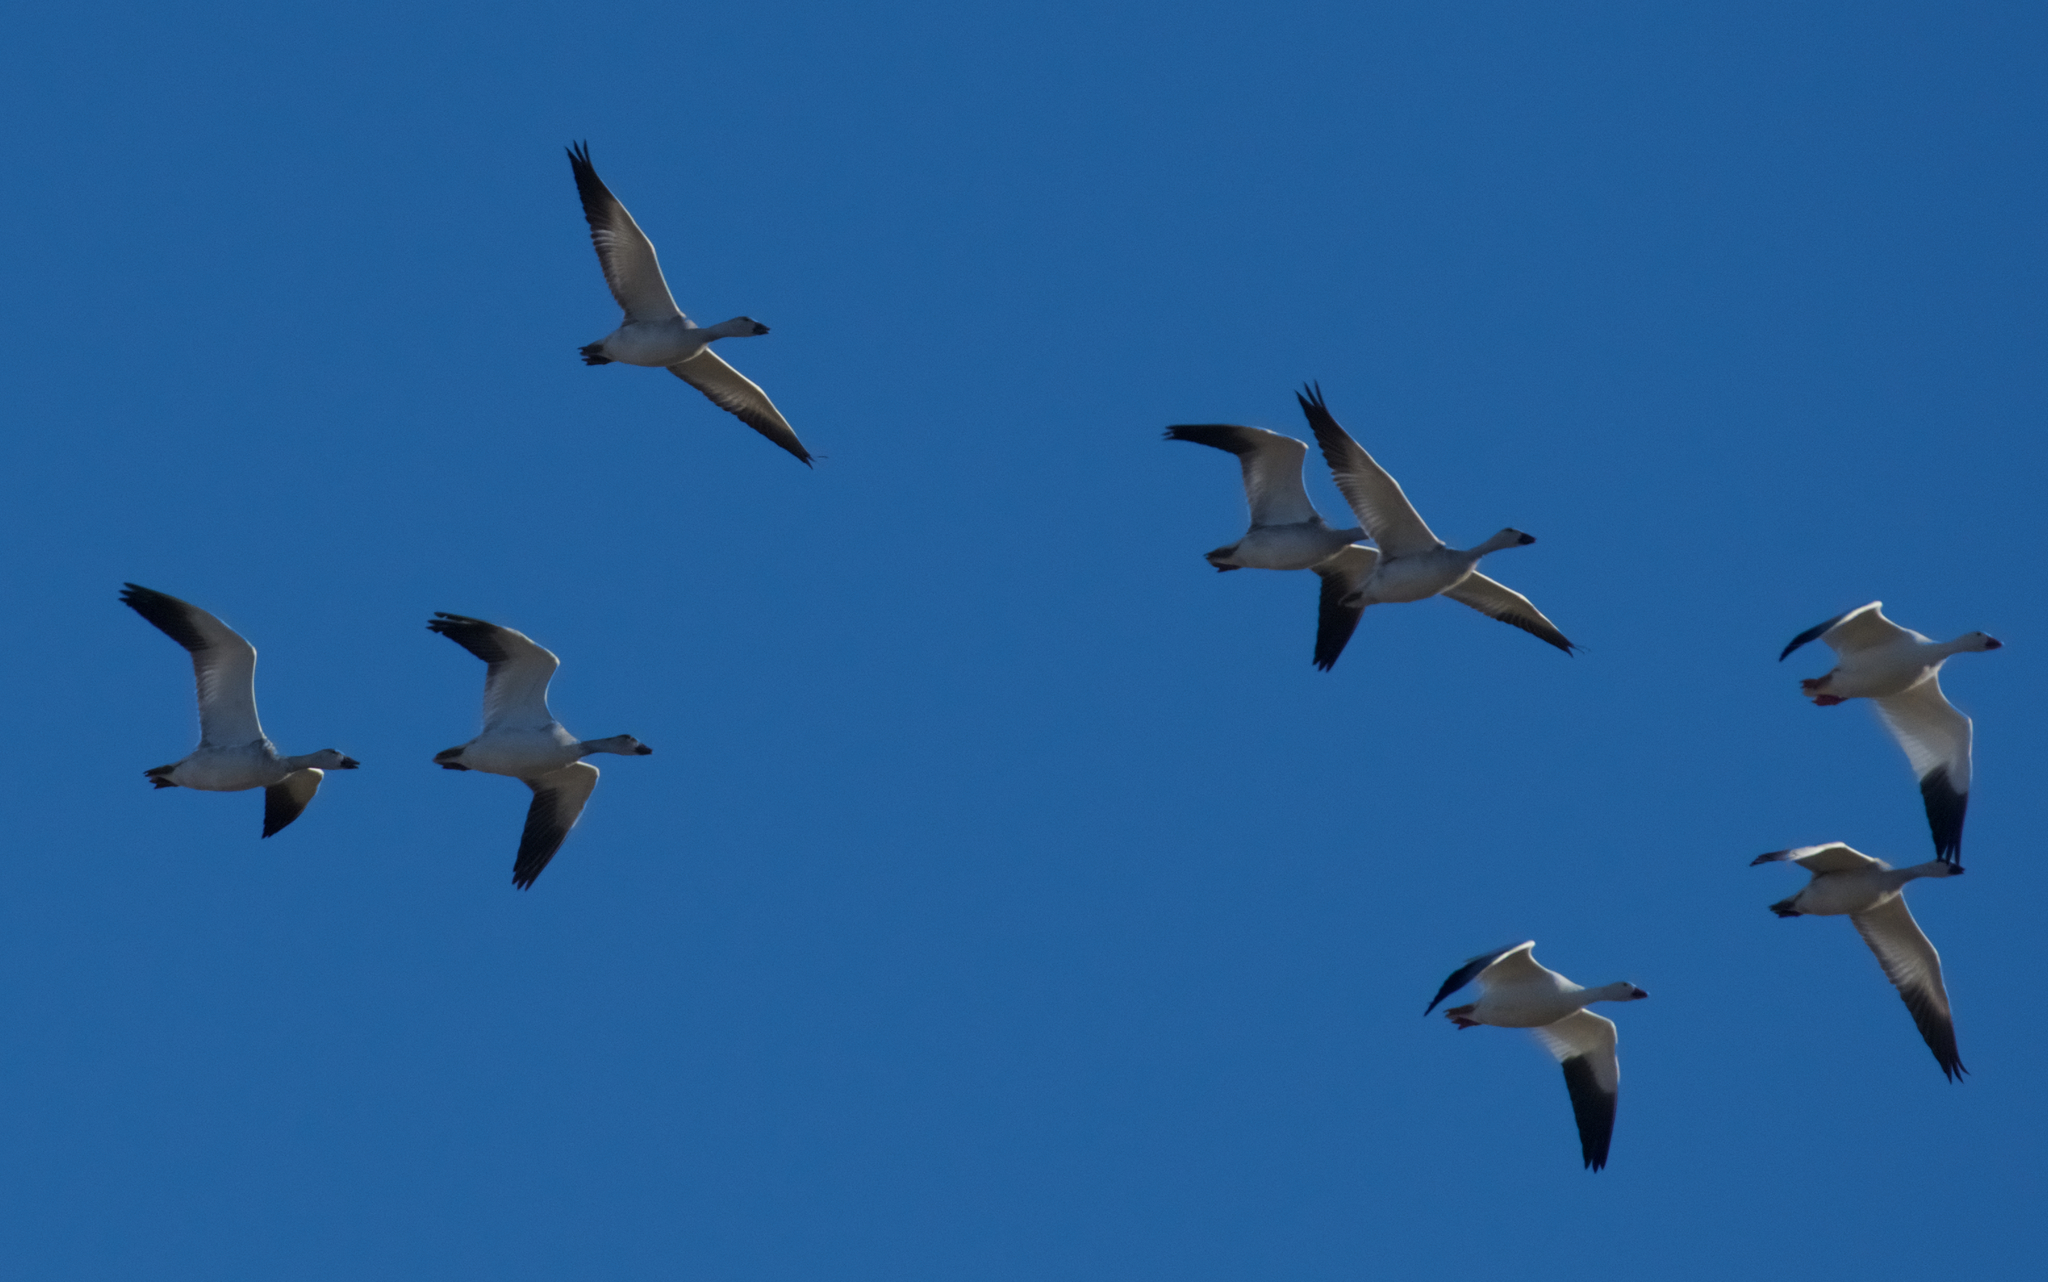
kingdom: Animalia
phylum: Chordata
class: Aves
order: Anseriformes
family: Anatidae
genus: Anser
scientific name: Anser caerulescens
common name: Snow goose
